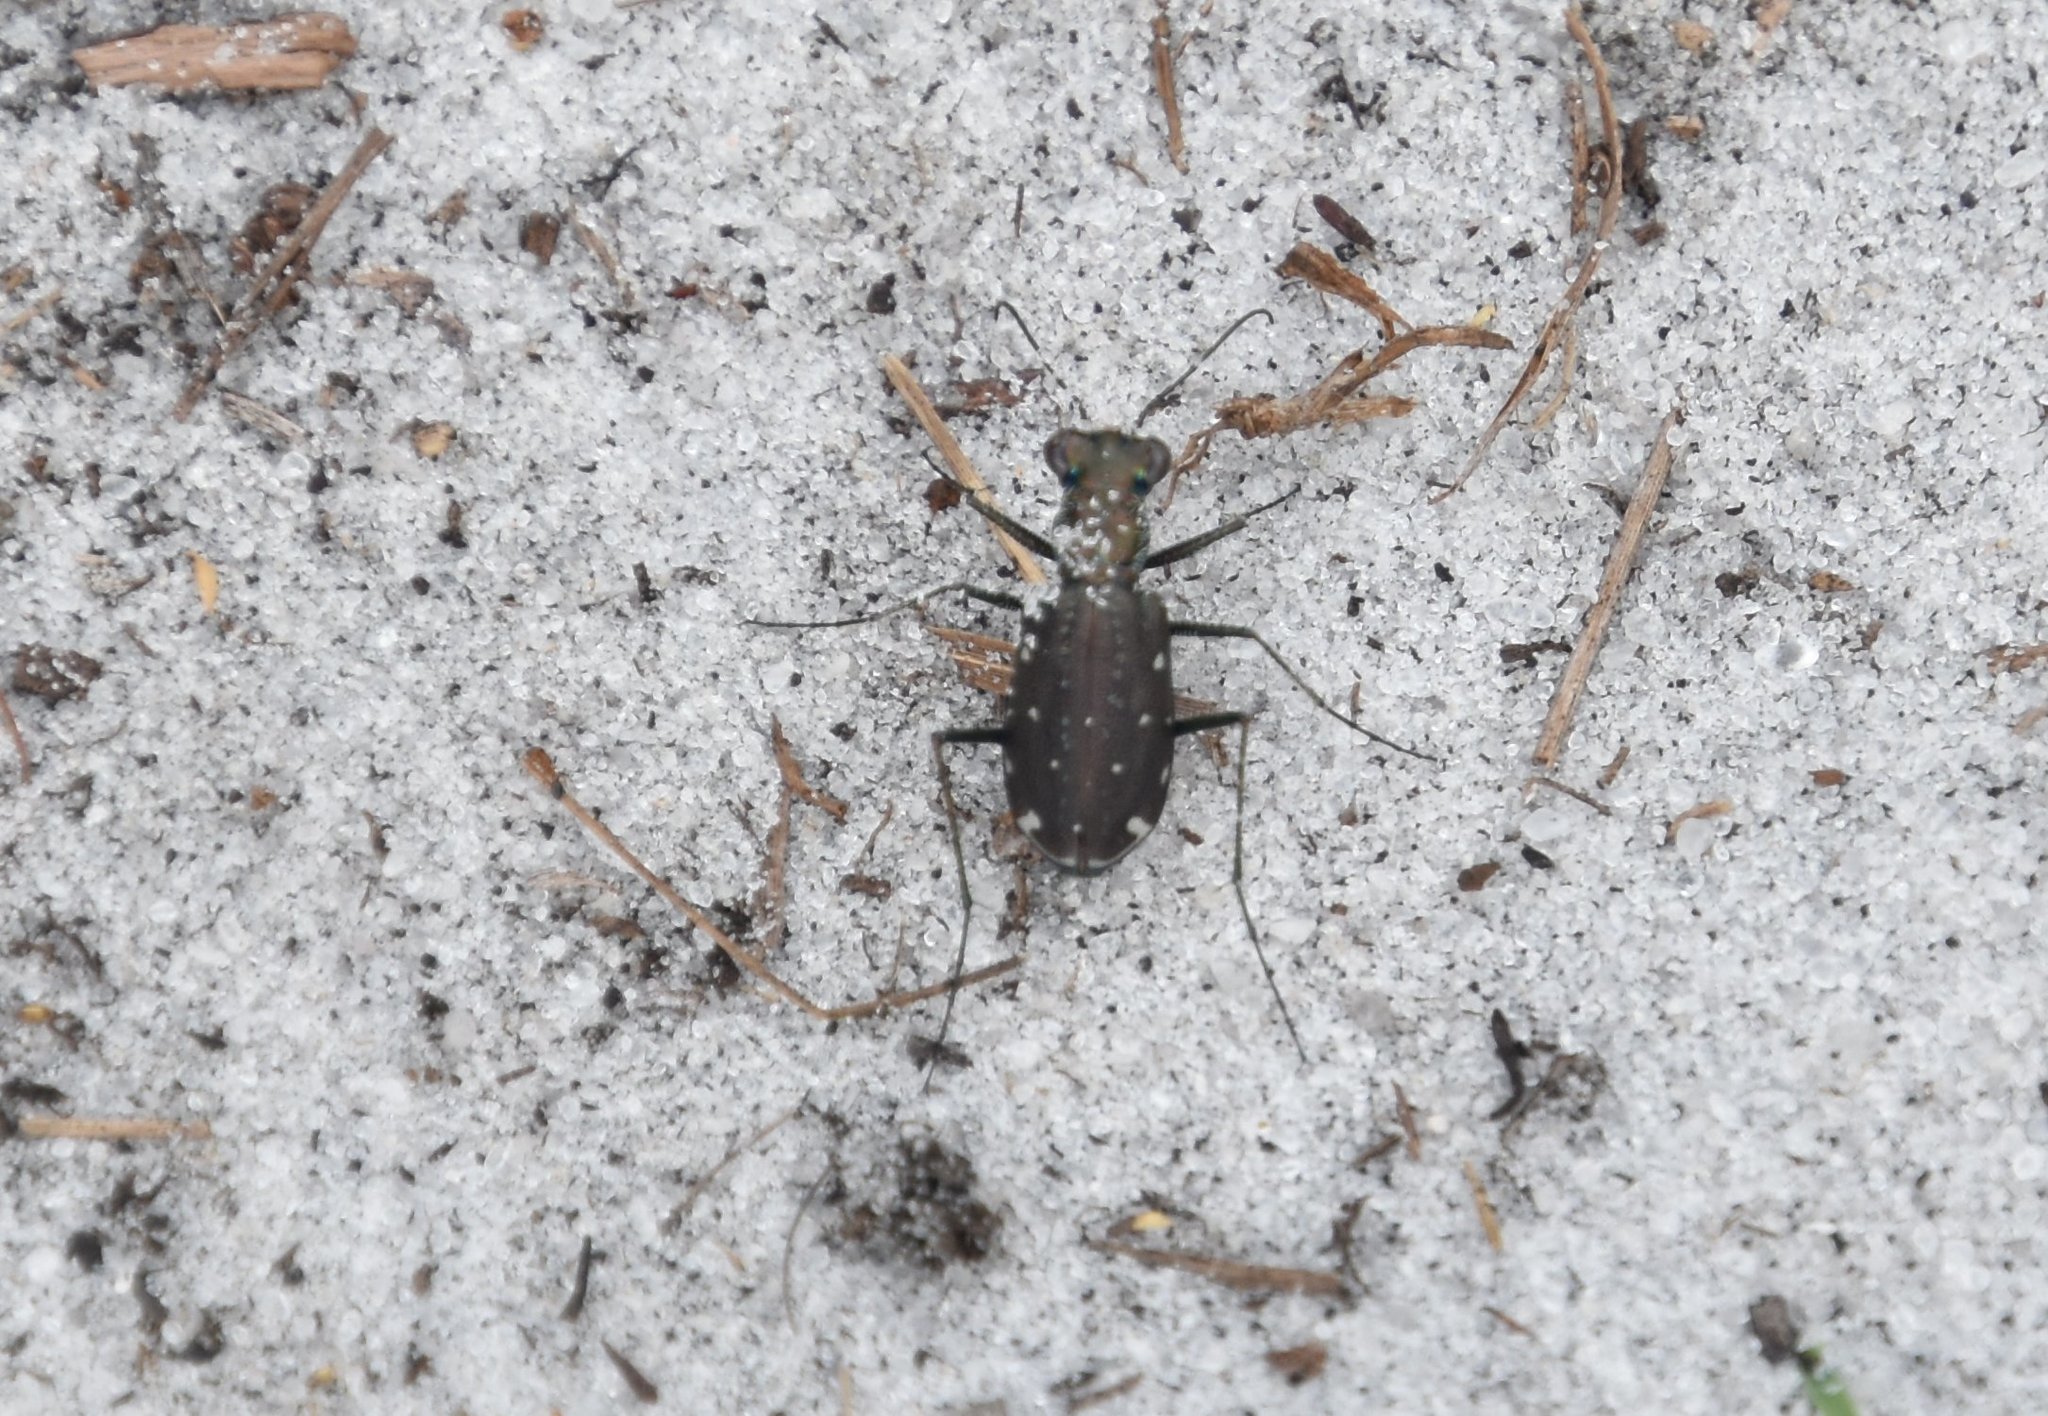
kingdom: Animalia
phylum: Arthropoda
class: Insecta
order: Coleoptera
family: Carabidae
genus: Cicindela
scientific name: Cicindela punctulata
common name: Punctured tiger beetle
